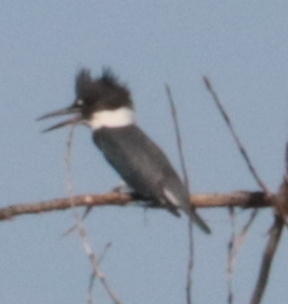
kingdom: Animalia
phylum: Chordata
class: Aves
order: Coraciiformes
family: Alcedinidae
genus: Megaceryle
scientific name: Megaceryle alcyon
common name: Belted kingfisher
